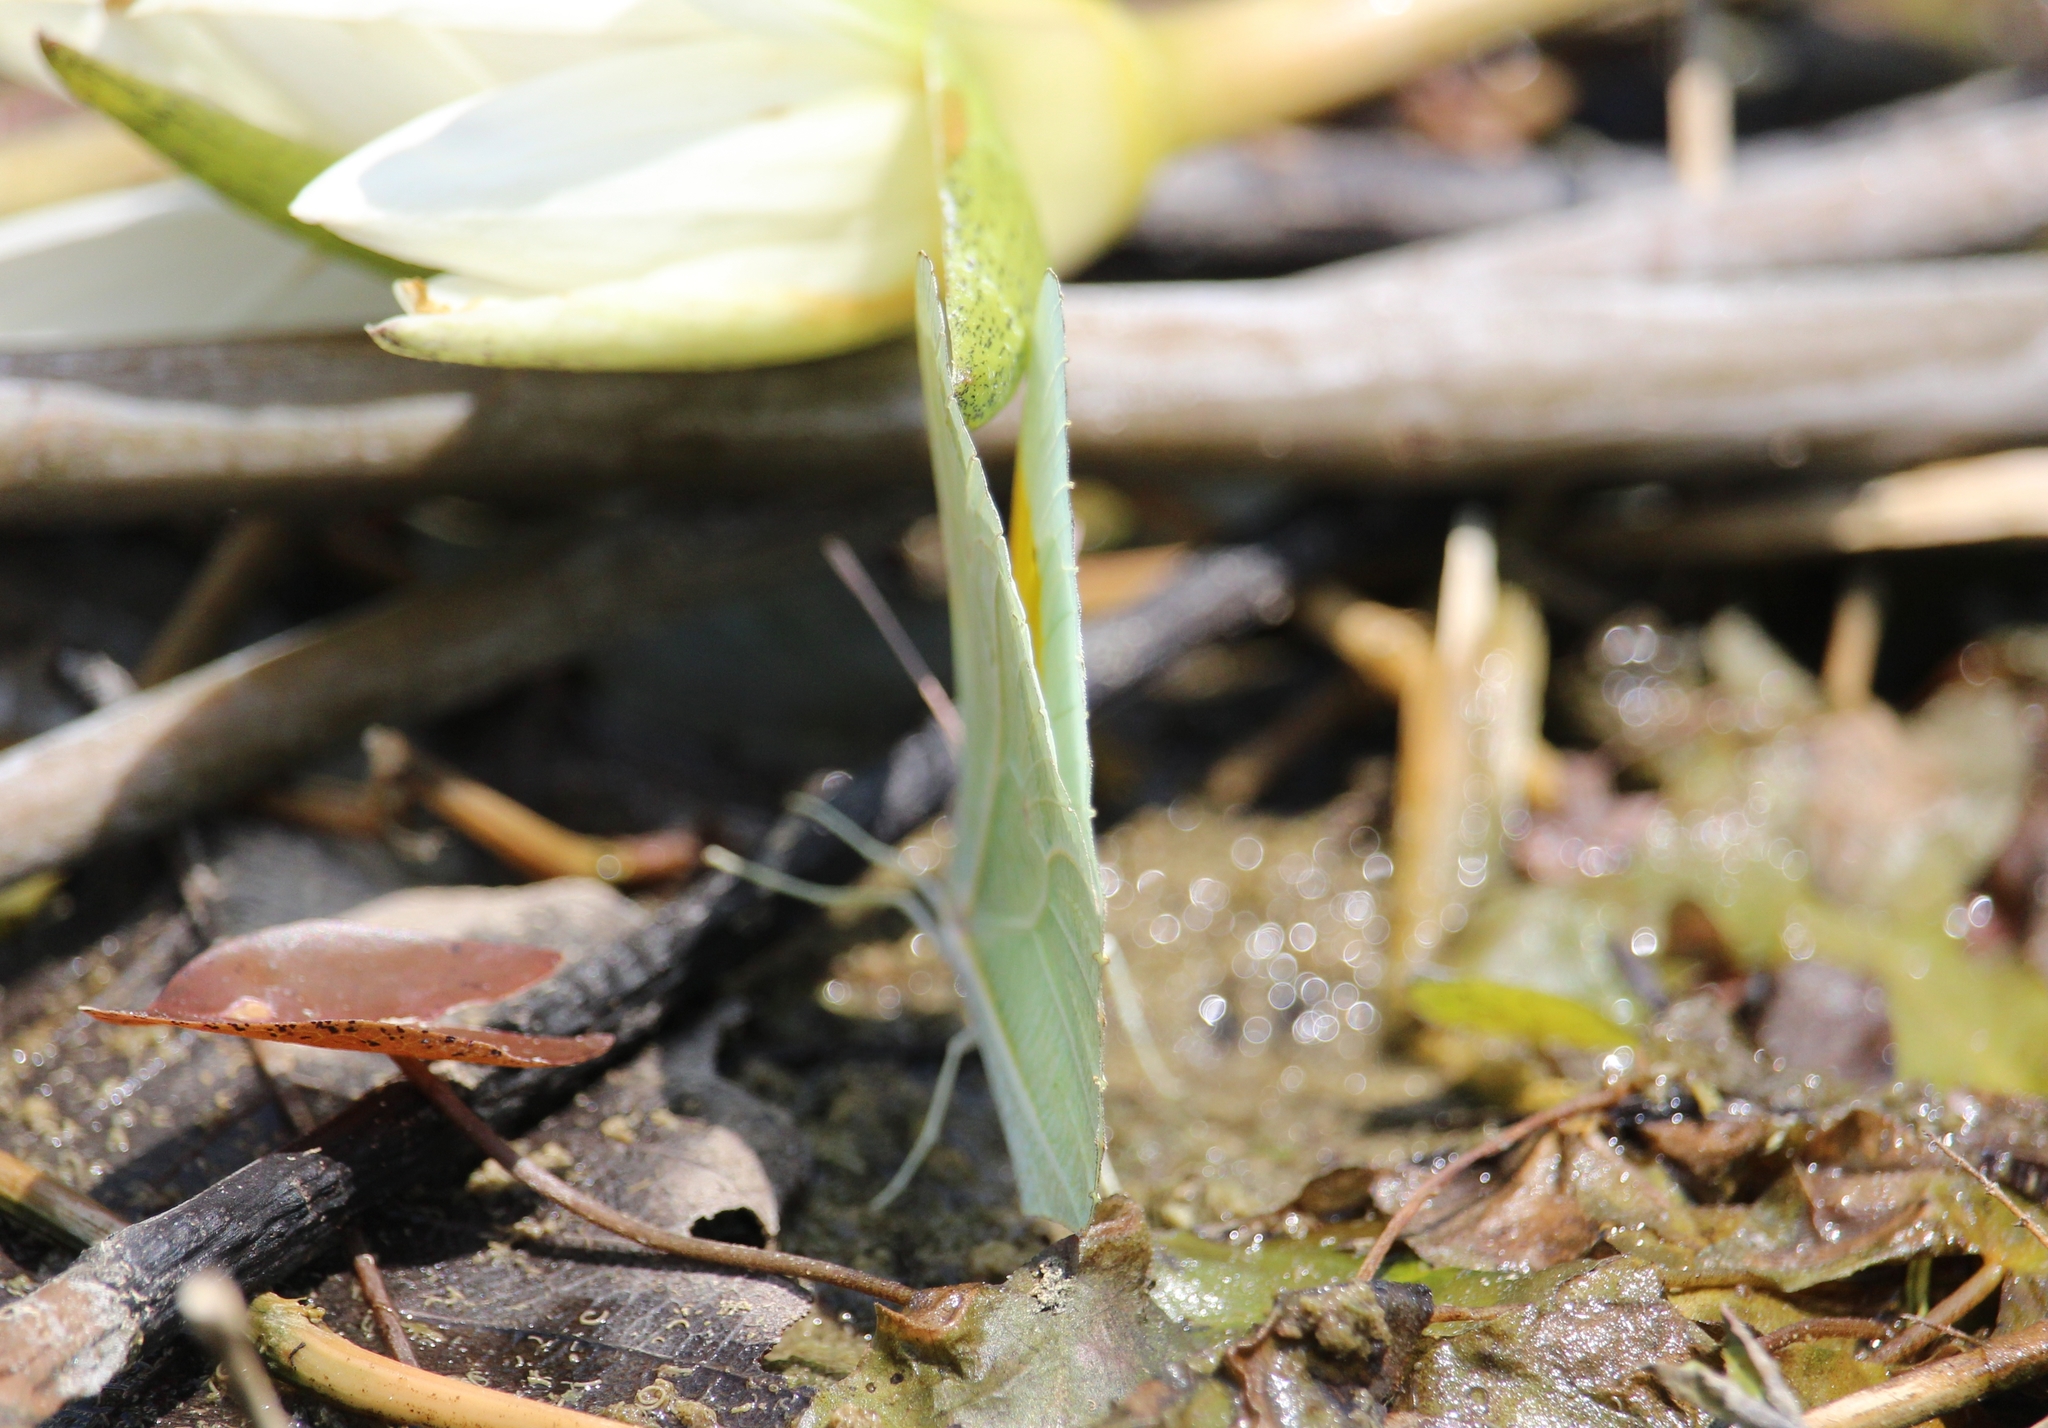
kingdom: Animalia
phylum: Arthropoda
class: Insecta
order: Lepidoptera
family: Pieridae
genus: Anteos
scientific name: Anteos clorinde
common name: White angled sulphur
